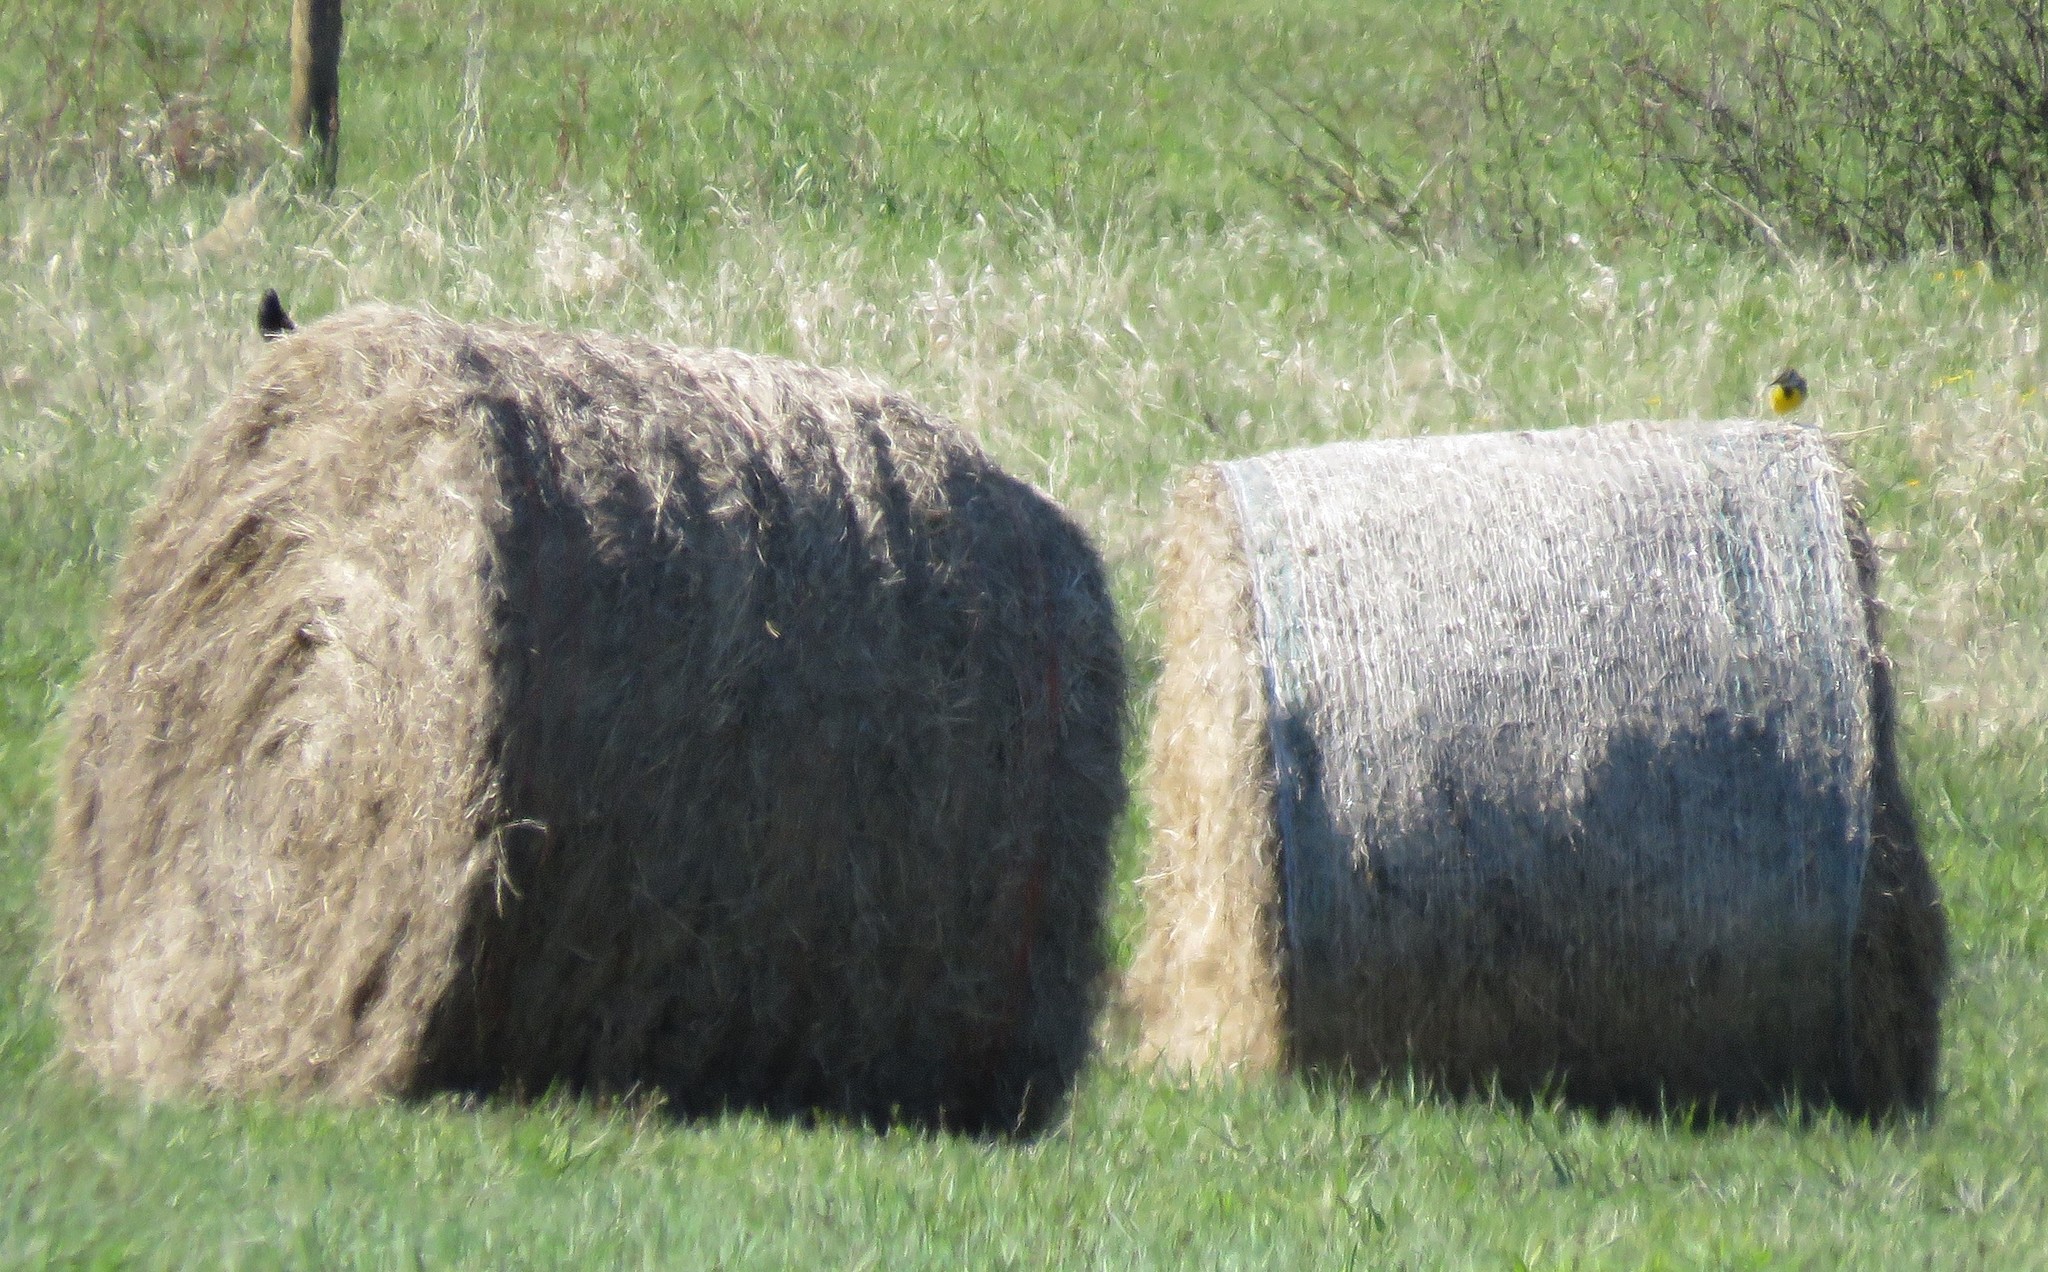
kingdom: Animalia
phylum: Chordata
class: Aves
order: Passeriformes
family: Icteridae
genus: Sturnella
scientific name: Sturnella magna
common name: Eastern meadowlark
